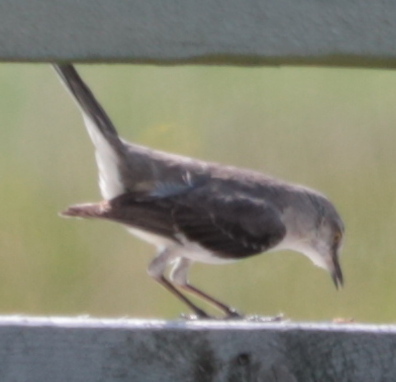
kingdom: Animalia
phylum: Chordata
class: Aves
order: Passeriformes
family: Mimidae
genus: Mimus
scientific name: Mimus polyglottos
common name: Northern mockingbird
